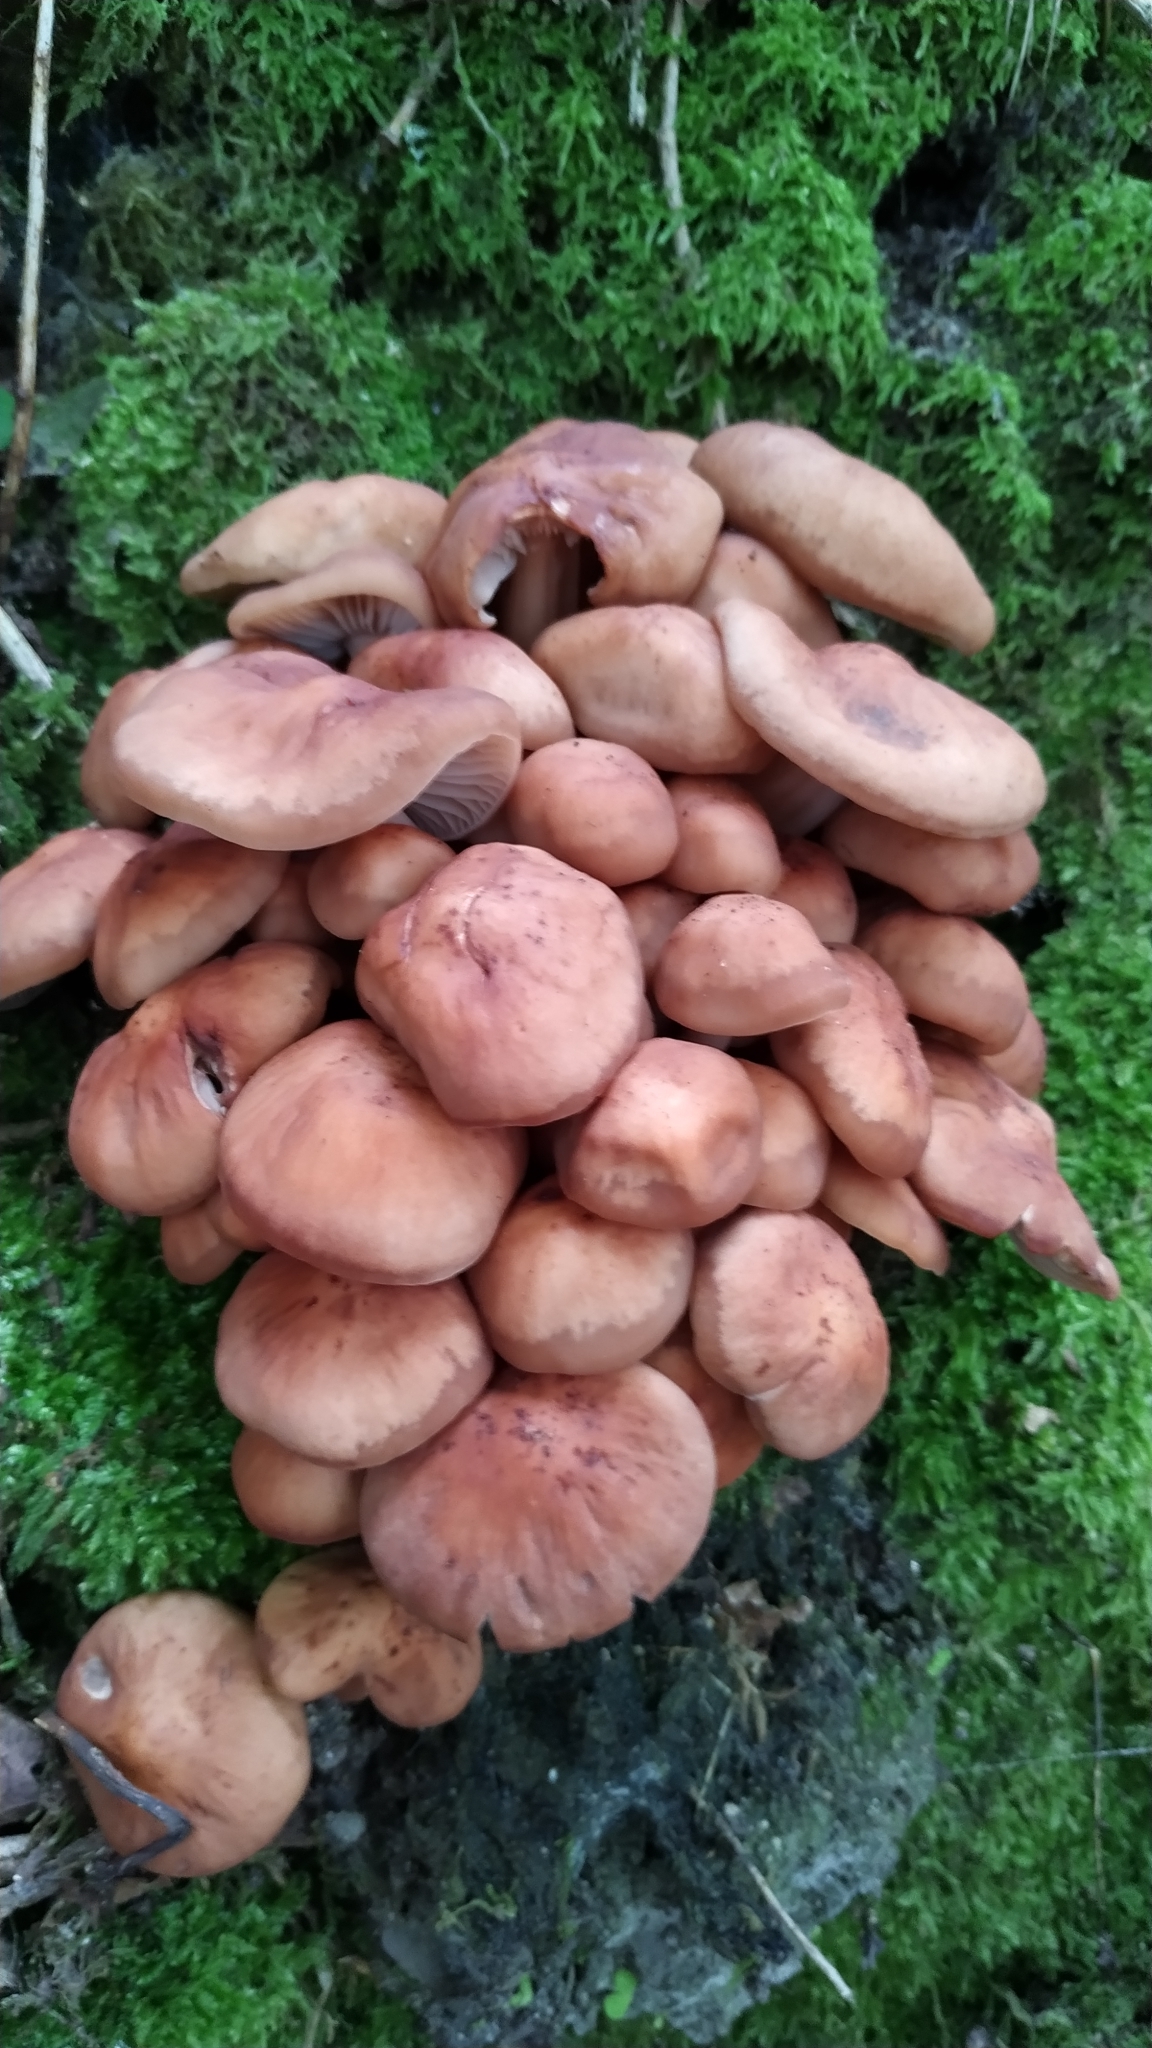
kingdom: Fungi
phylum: Basidiomycota
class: Agaricomycetes
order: Agaricales
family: Omphalotaceae
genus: Gymnopus
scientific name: Gymnopus fusipes
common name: Spindle shank
